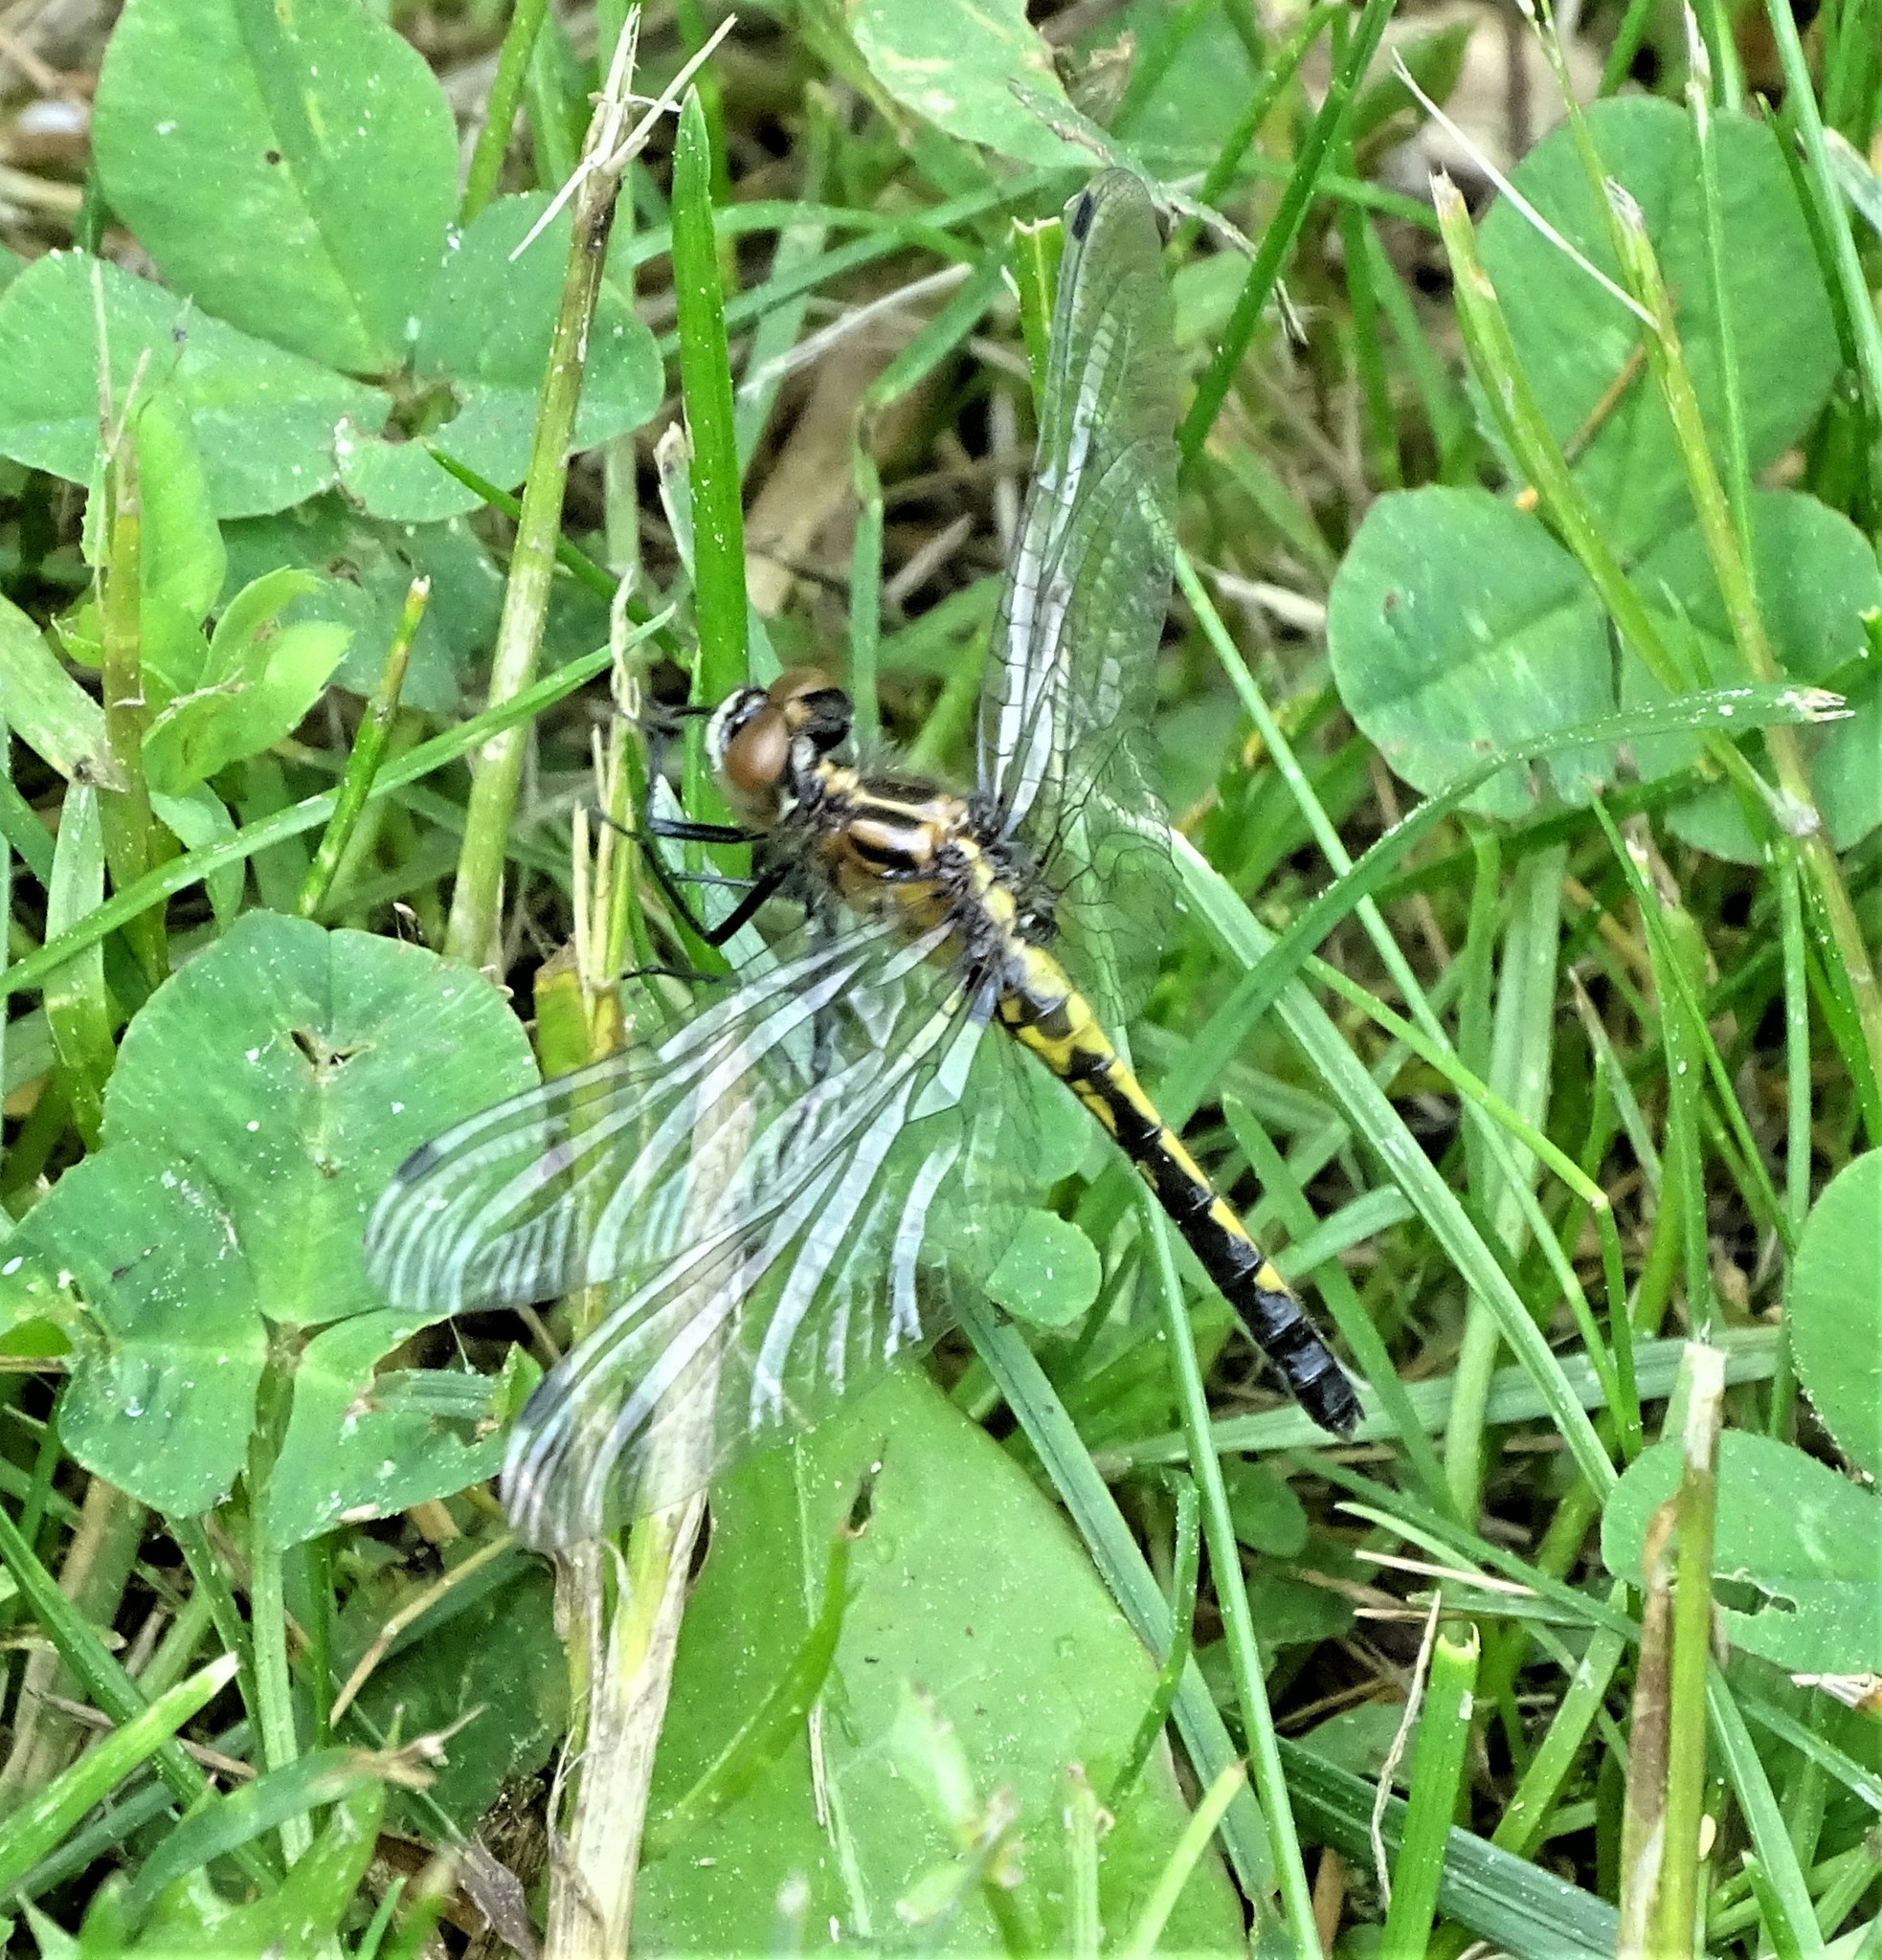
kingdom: Animalia
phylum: Arthropoda
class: Insecta
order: Odonata
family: Libellulidae
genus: Leucorrhinia
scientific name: Leucorrhinia intacta
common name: Dot-tailed whiteface
